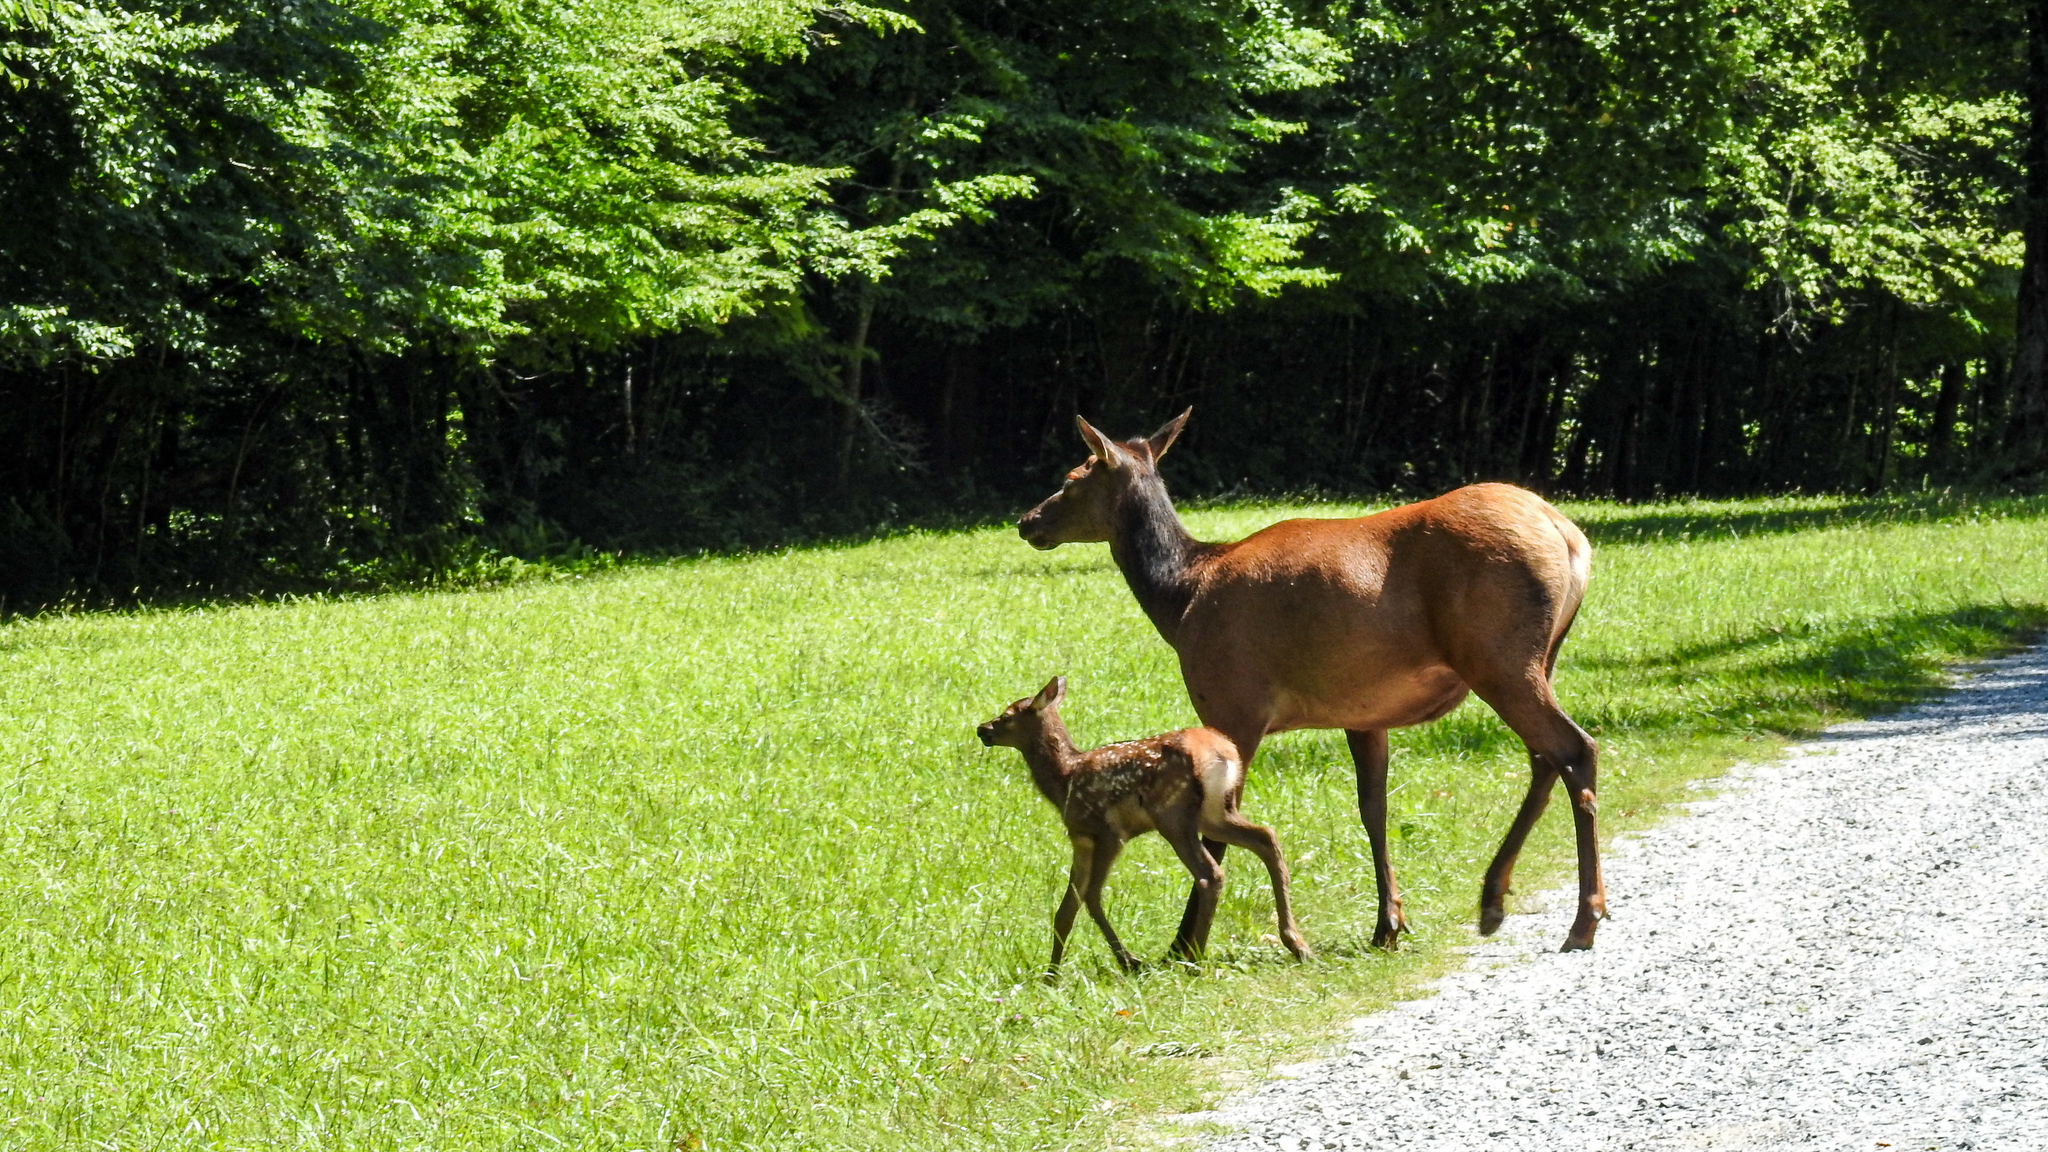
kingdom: Animalia
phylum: Chordata
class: Mammalia
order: Artiodactyla
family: Cervidae
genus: Cervus
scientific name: Cervus elaphus
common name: Red deer
